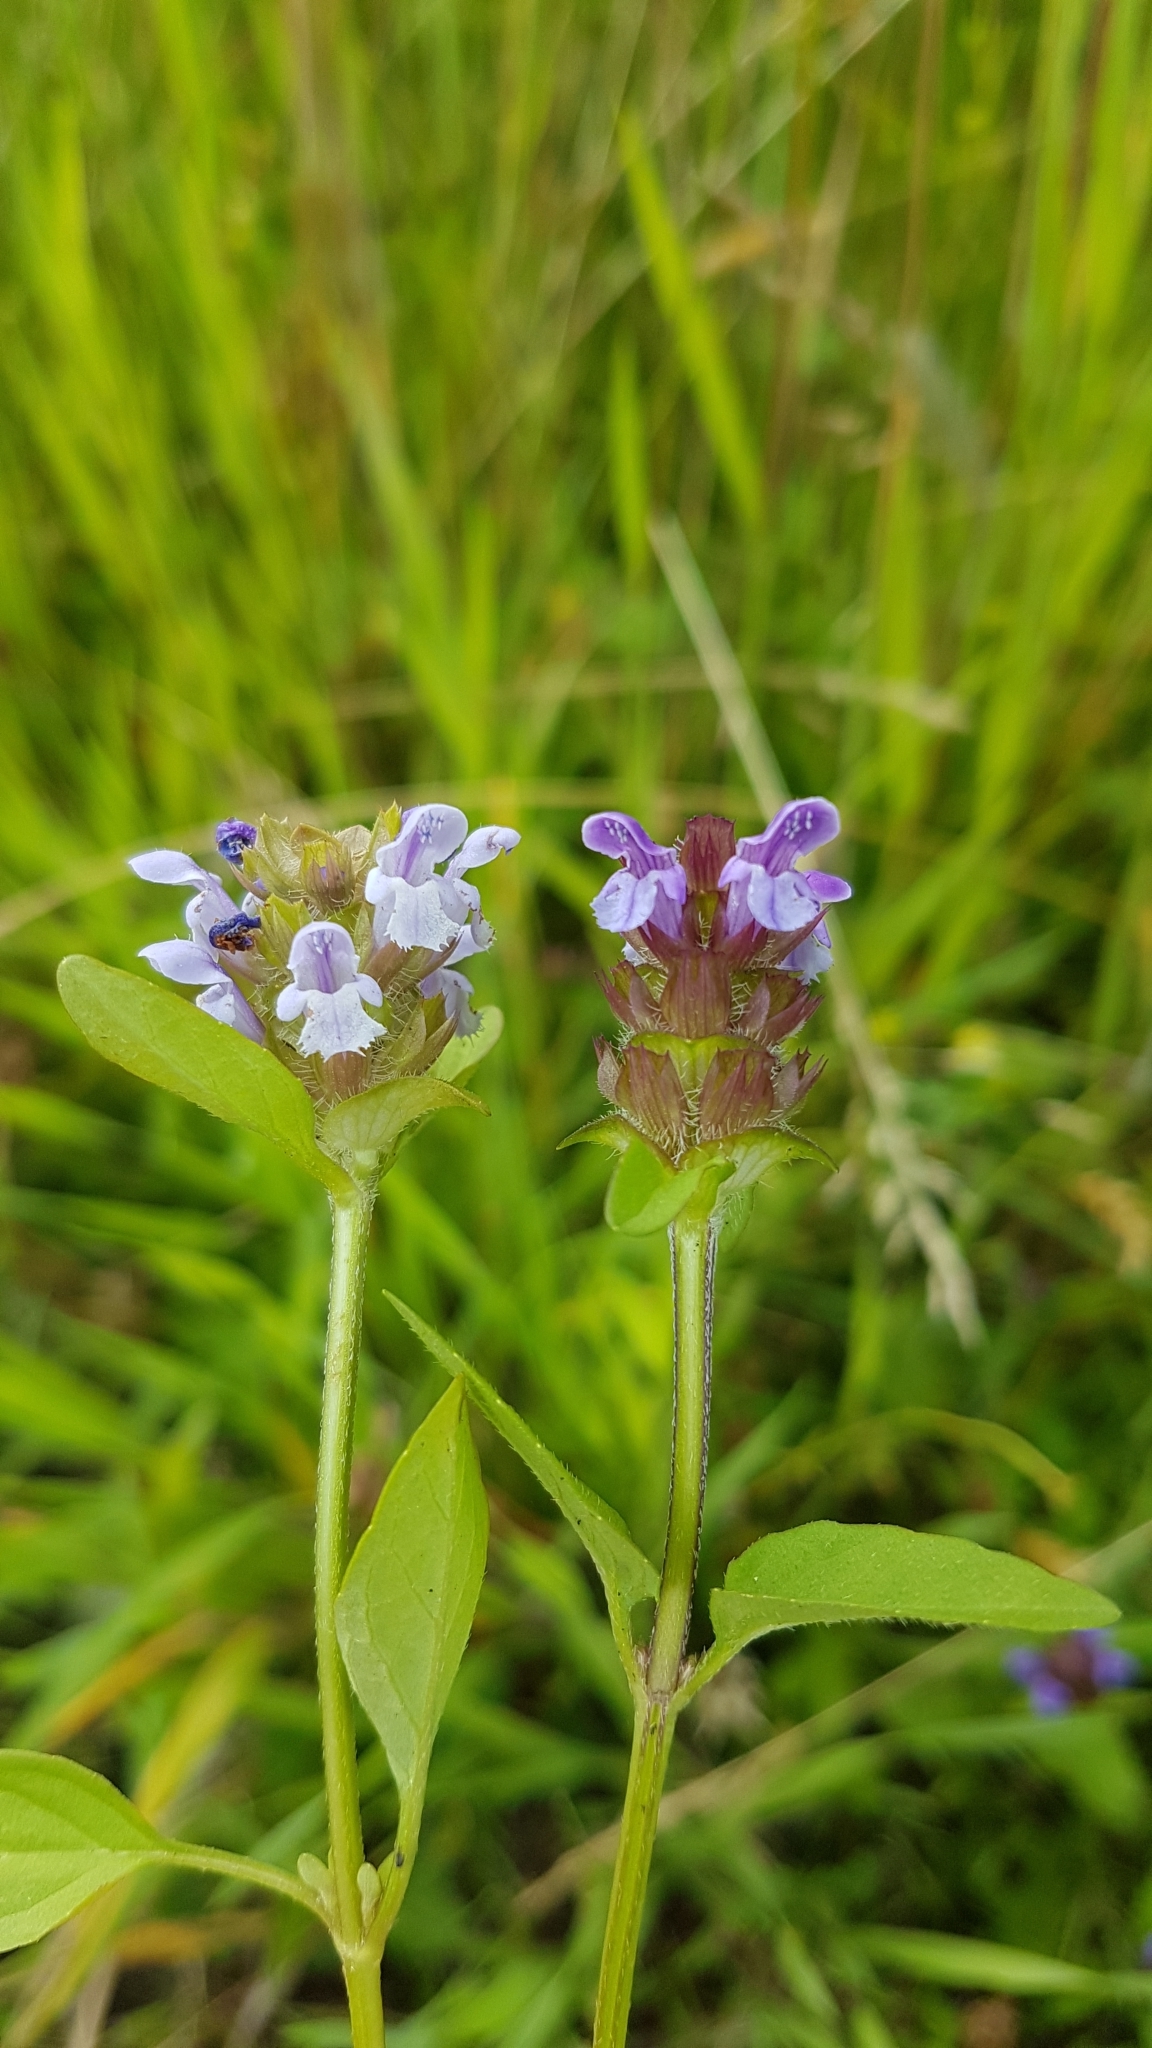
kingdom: Plantae
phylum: Tracheophyta
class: Magnoliopsida
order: Lamiales
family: Lamiaceae
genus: Prunella
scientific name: Prunella vulgaris
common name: Heal-all
